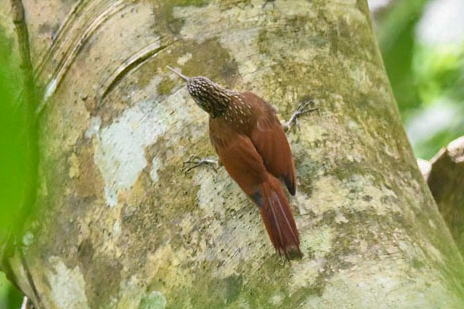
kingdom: Animalia
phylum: Chordata
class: Aves
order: Passeriformes
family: Furnariidae
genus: Lepidocolaptes
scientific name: Lepidocolaptes souleyetii
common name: Streak-headed woodcreeper
